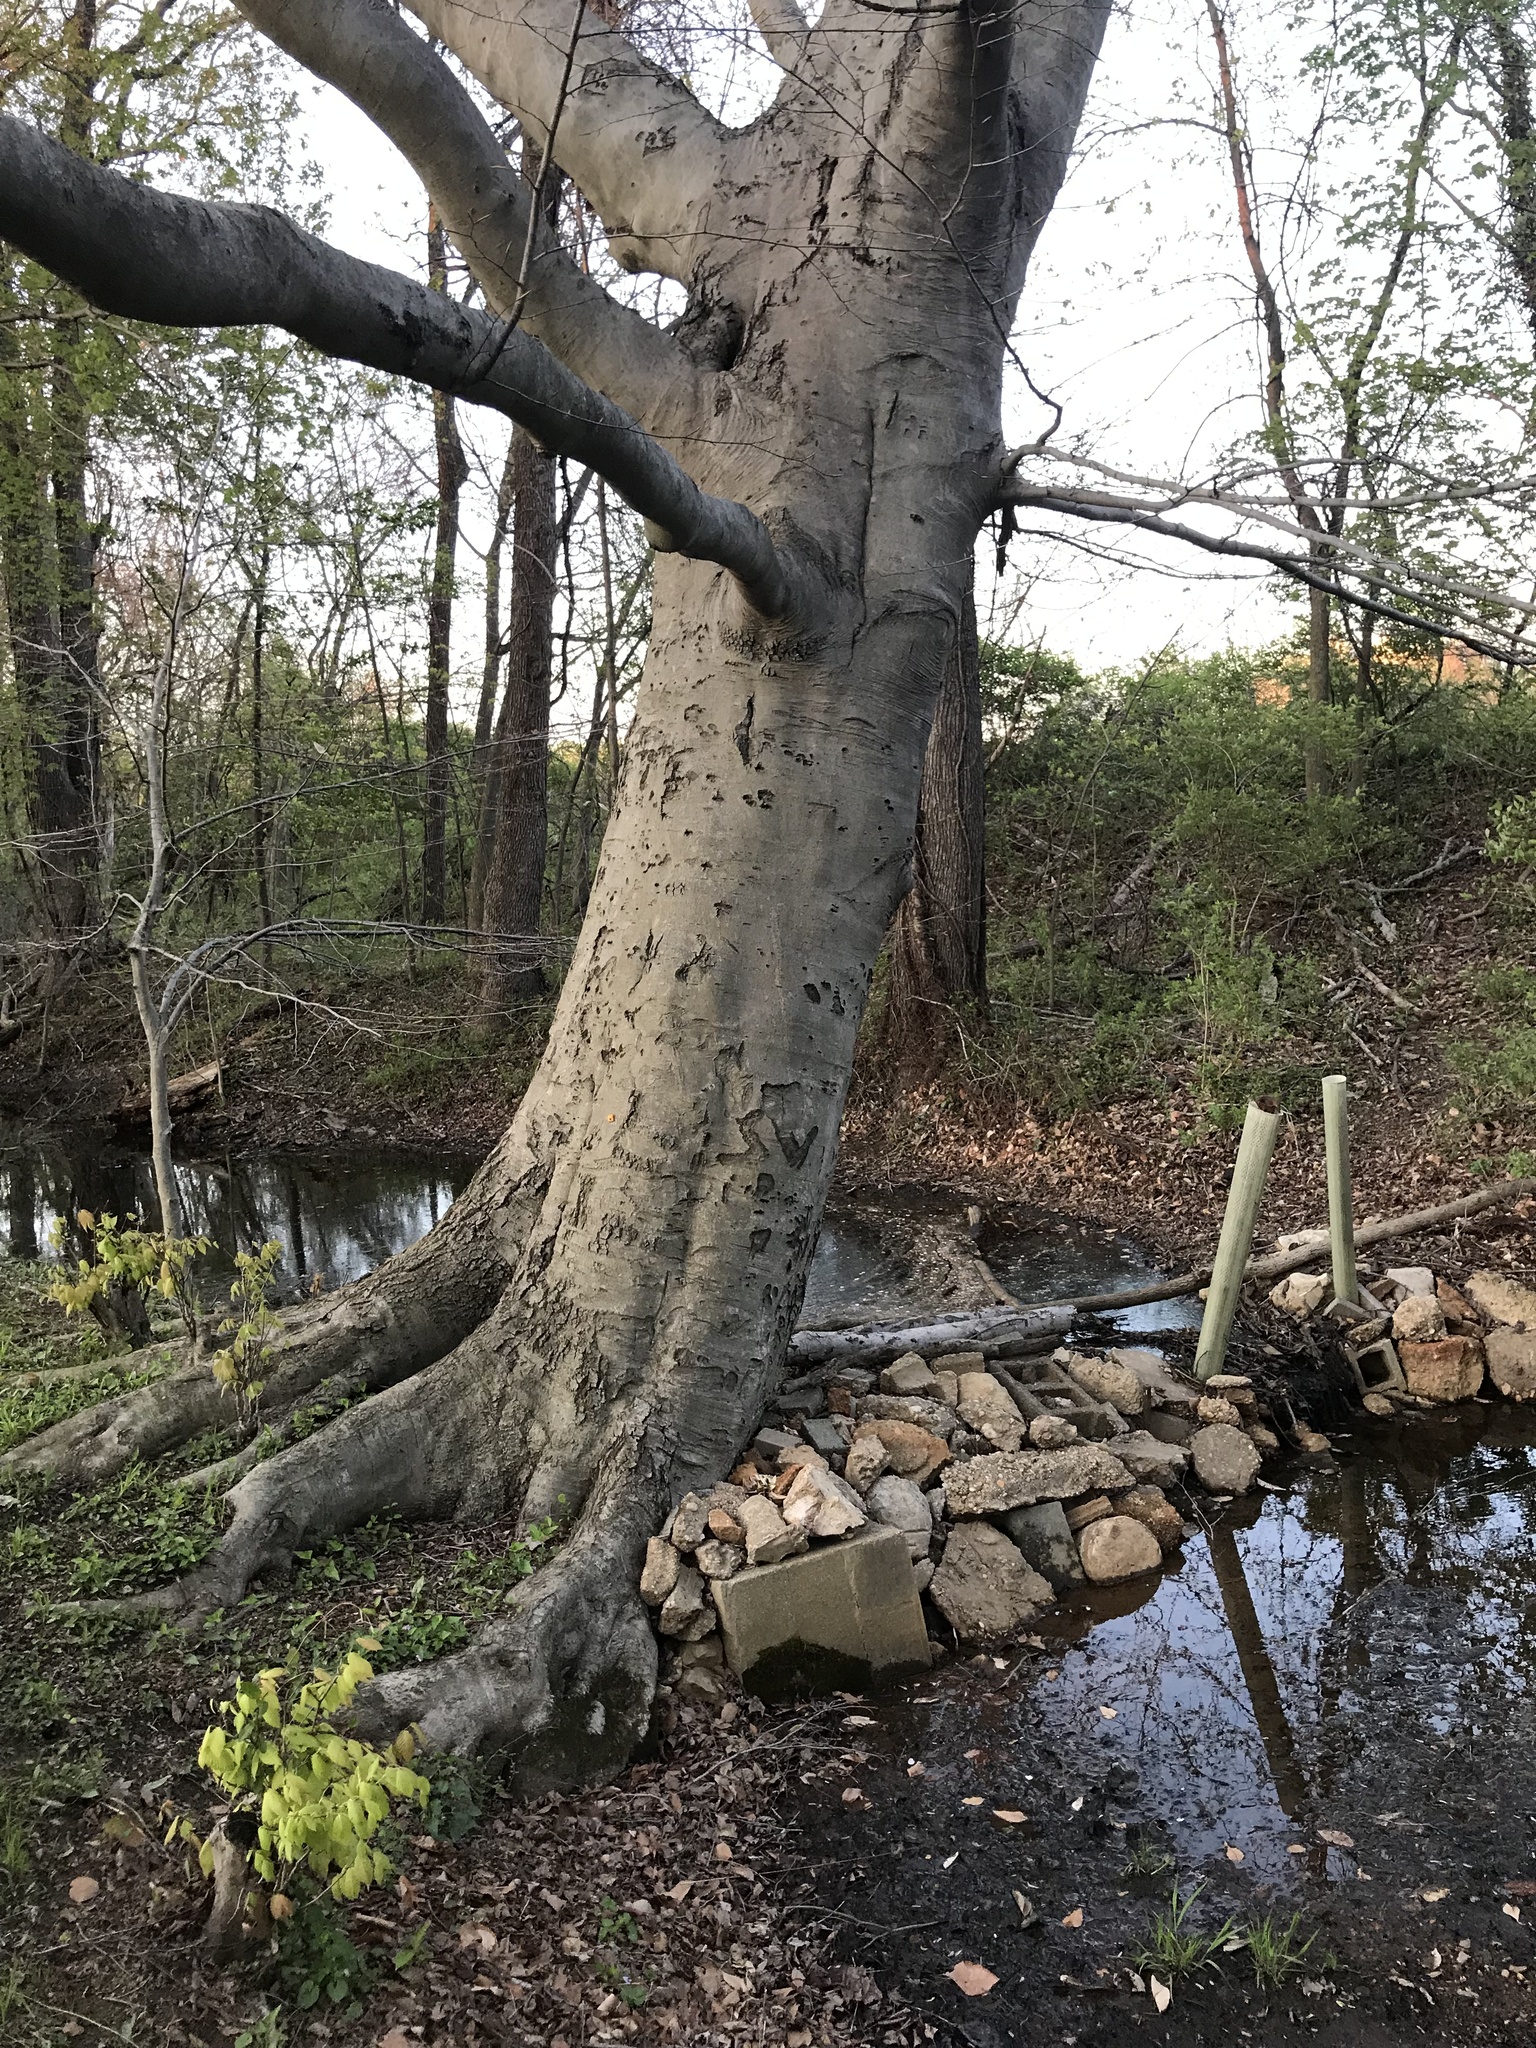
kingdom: Plantae
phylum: Tracheophyta
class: Magnoliopsida
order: Fagales
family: Fagaceae
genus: Fagus
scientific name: Fagus grandifolia
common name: American beech
